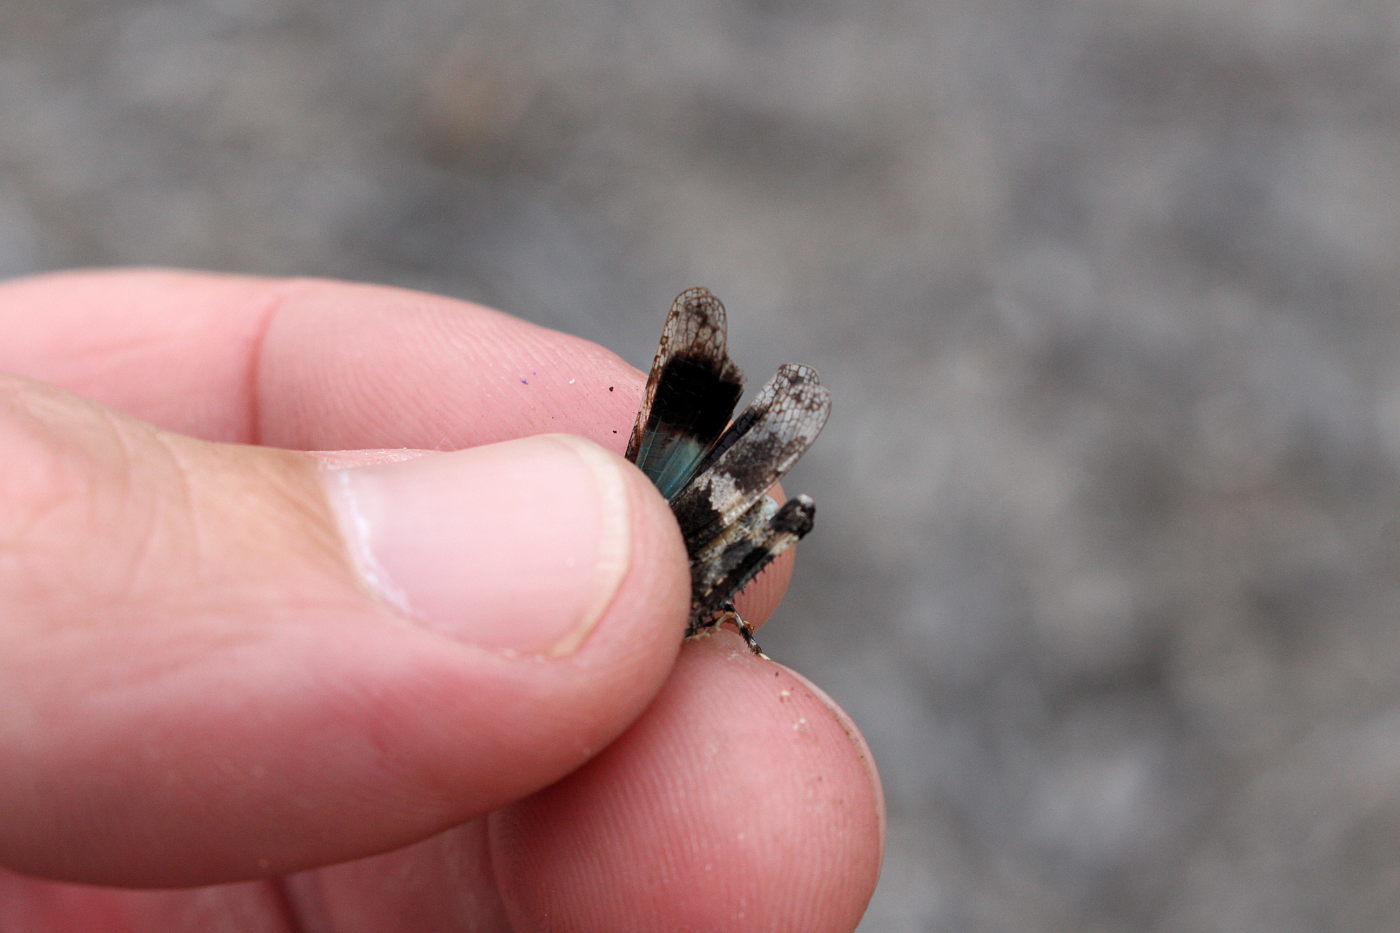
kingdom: Animalia
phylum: Arthropoda
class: Insecta
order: Orthoptera
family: Acrididae
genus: Oedipoda
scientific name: Oedipoda caerulescens
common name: Blue-winged grasshopper
